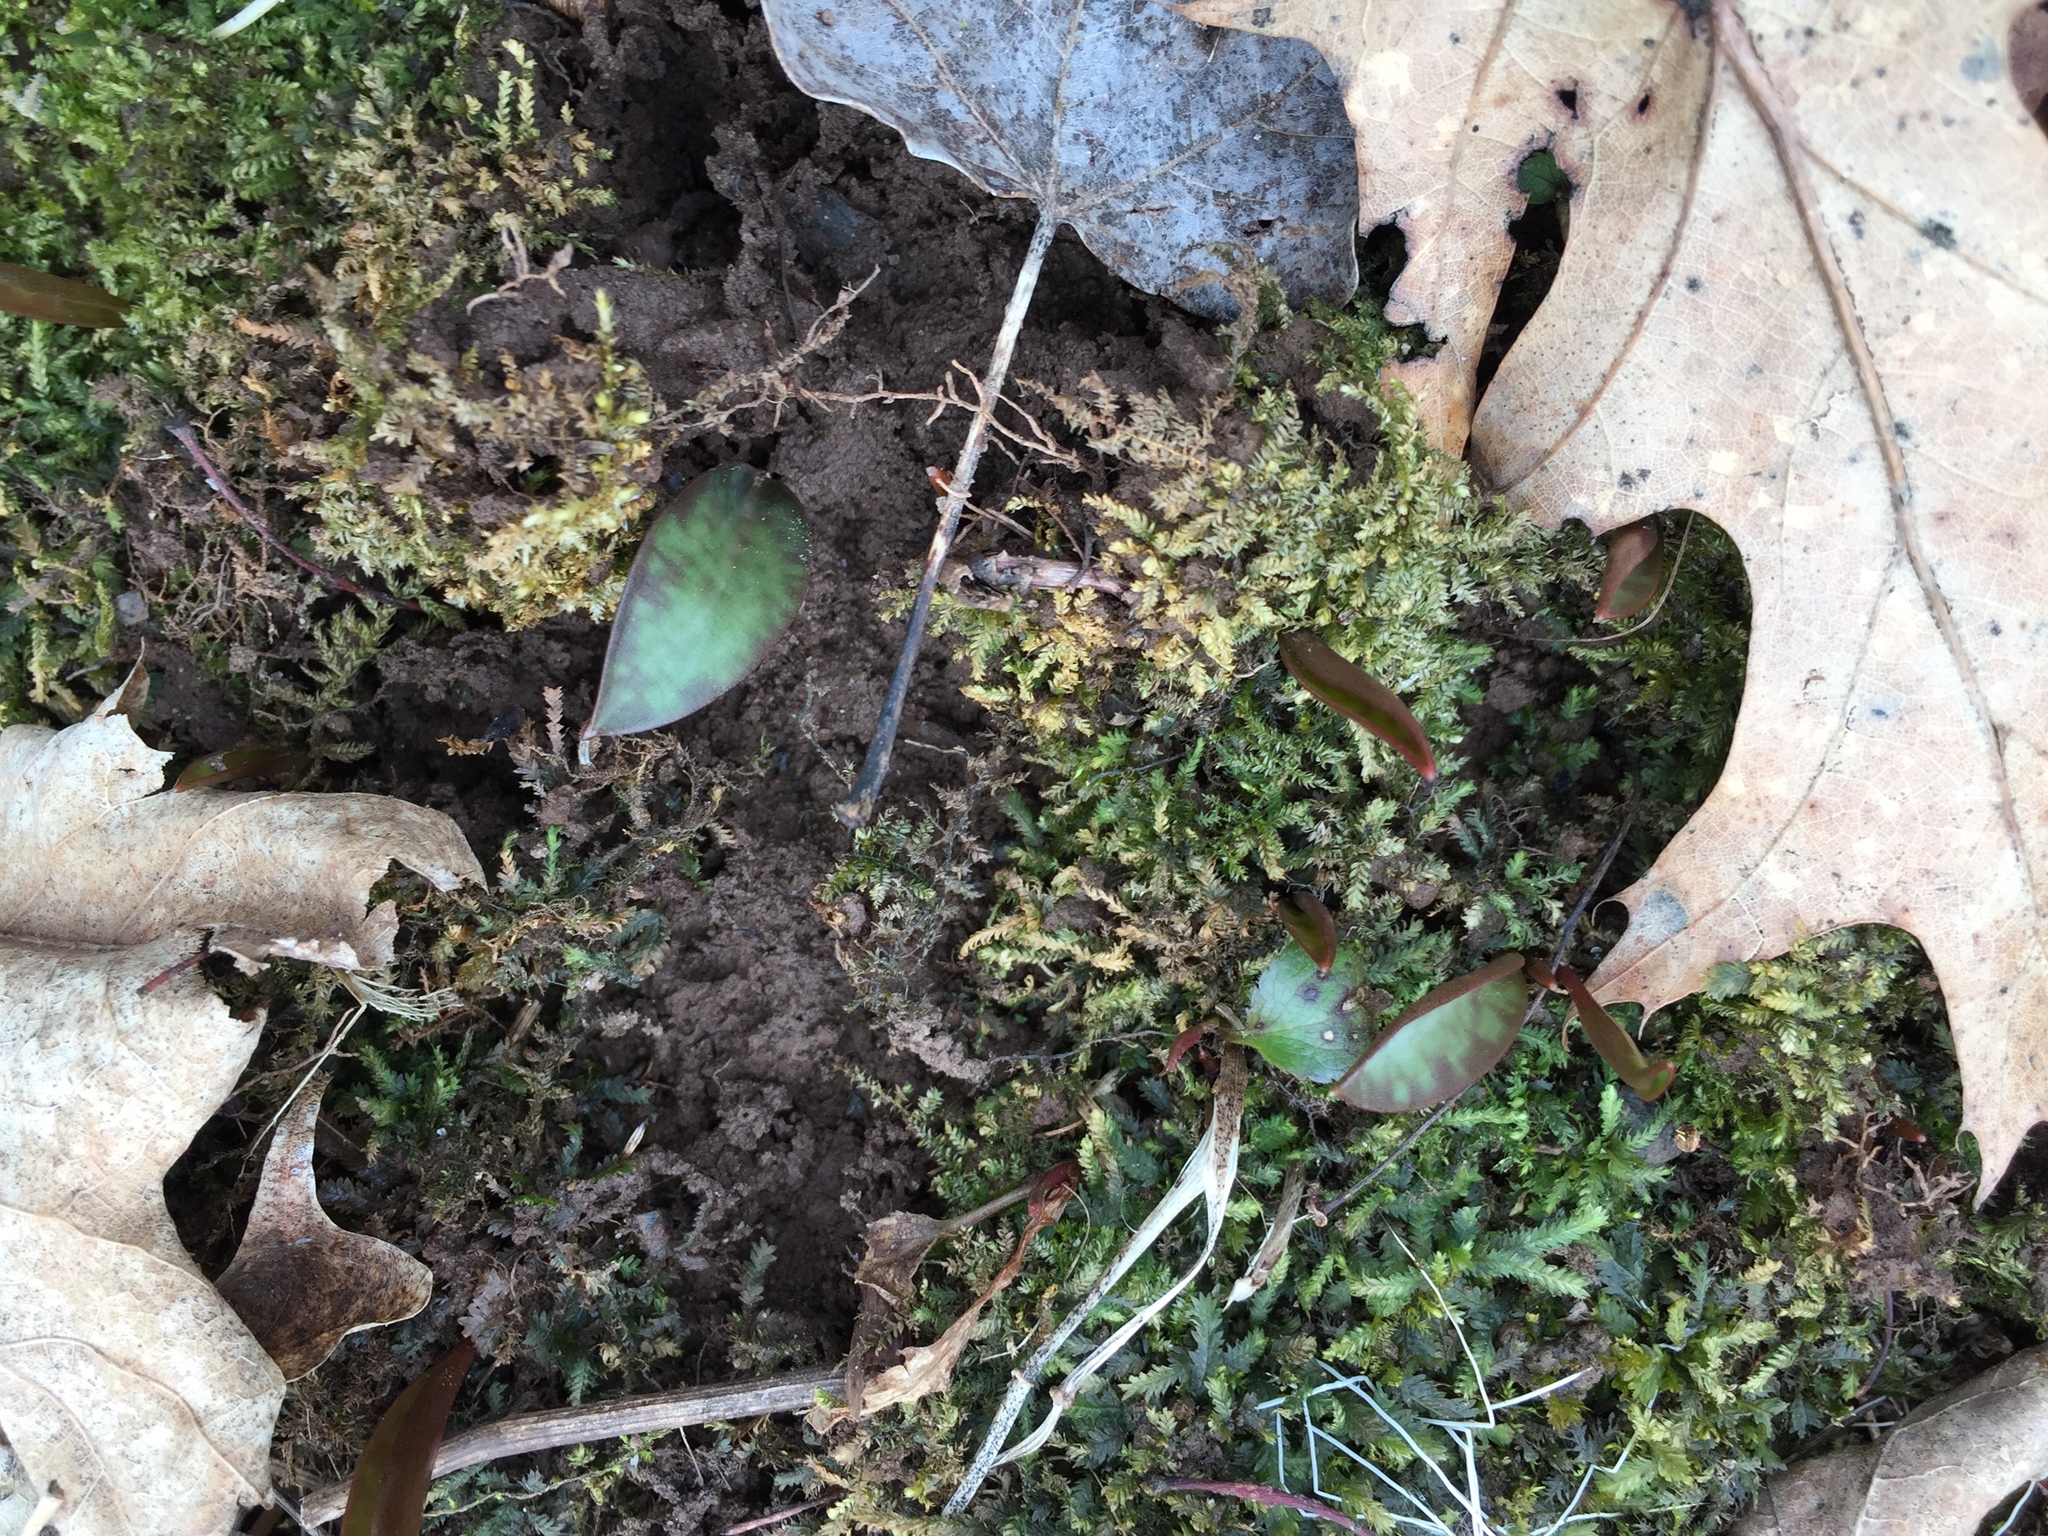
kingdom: Plantae
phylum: Tracheophyta
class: Liliopsida
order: Liliales
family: Liliaceae
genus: Erythronium
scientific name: Erythronium
